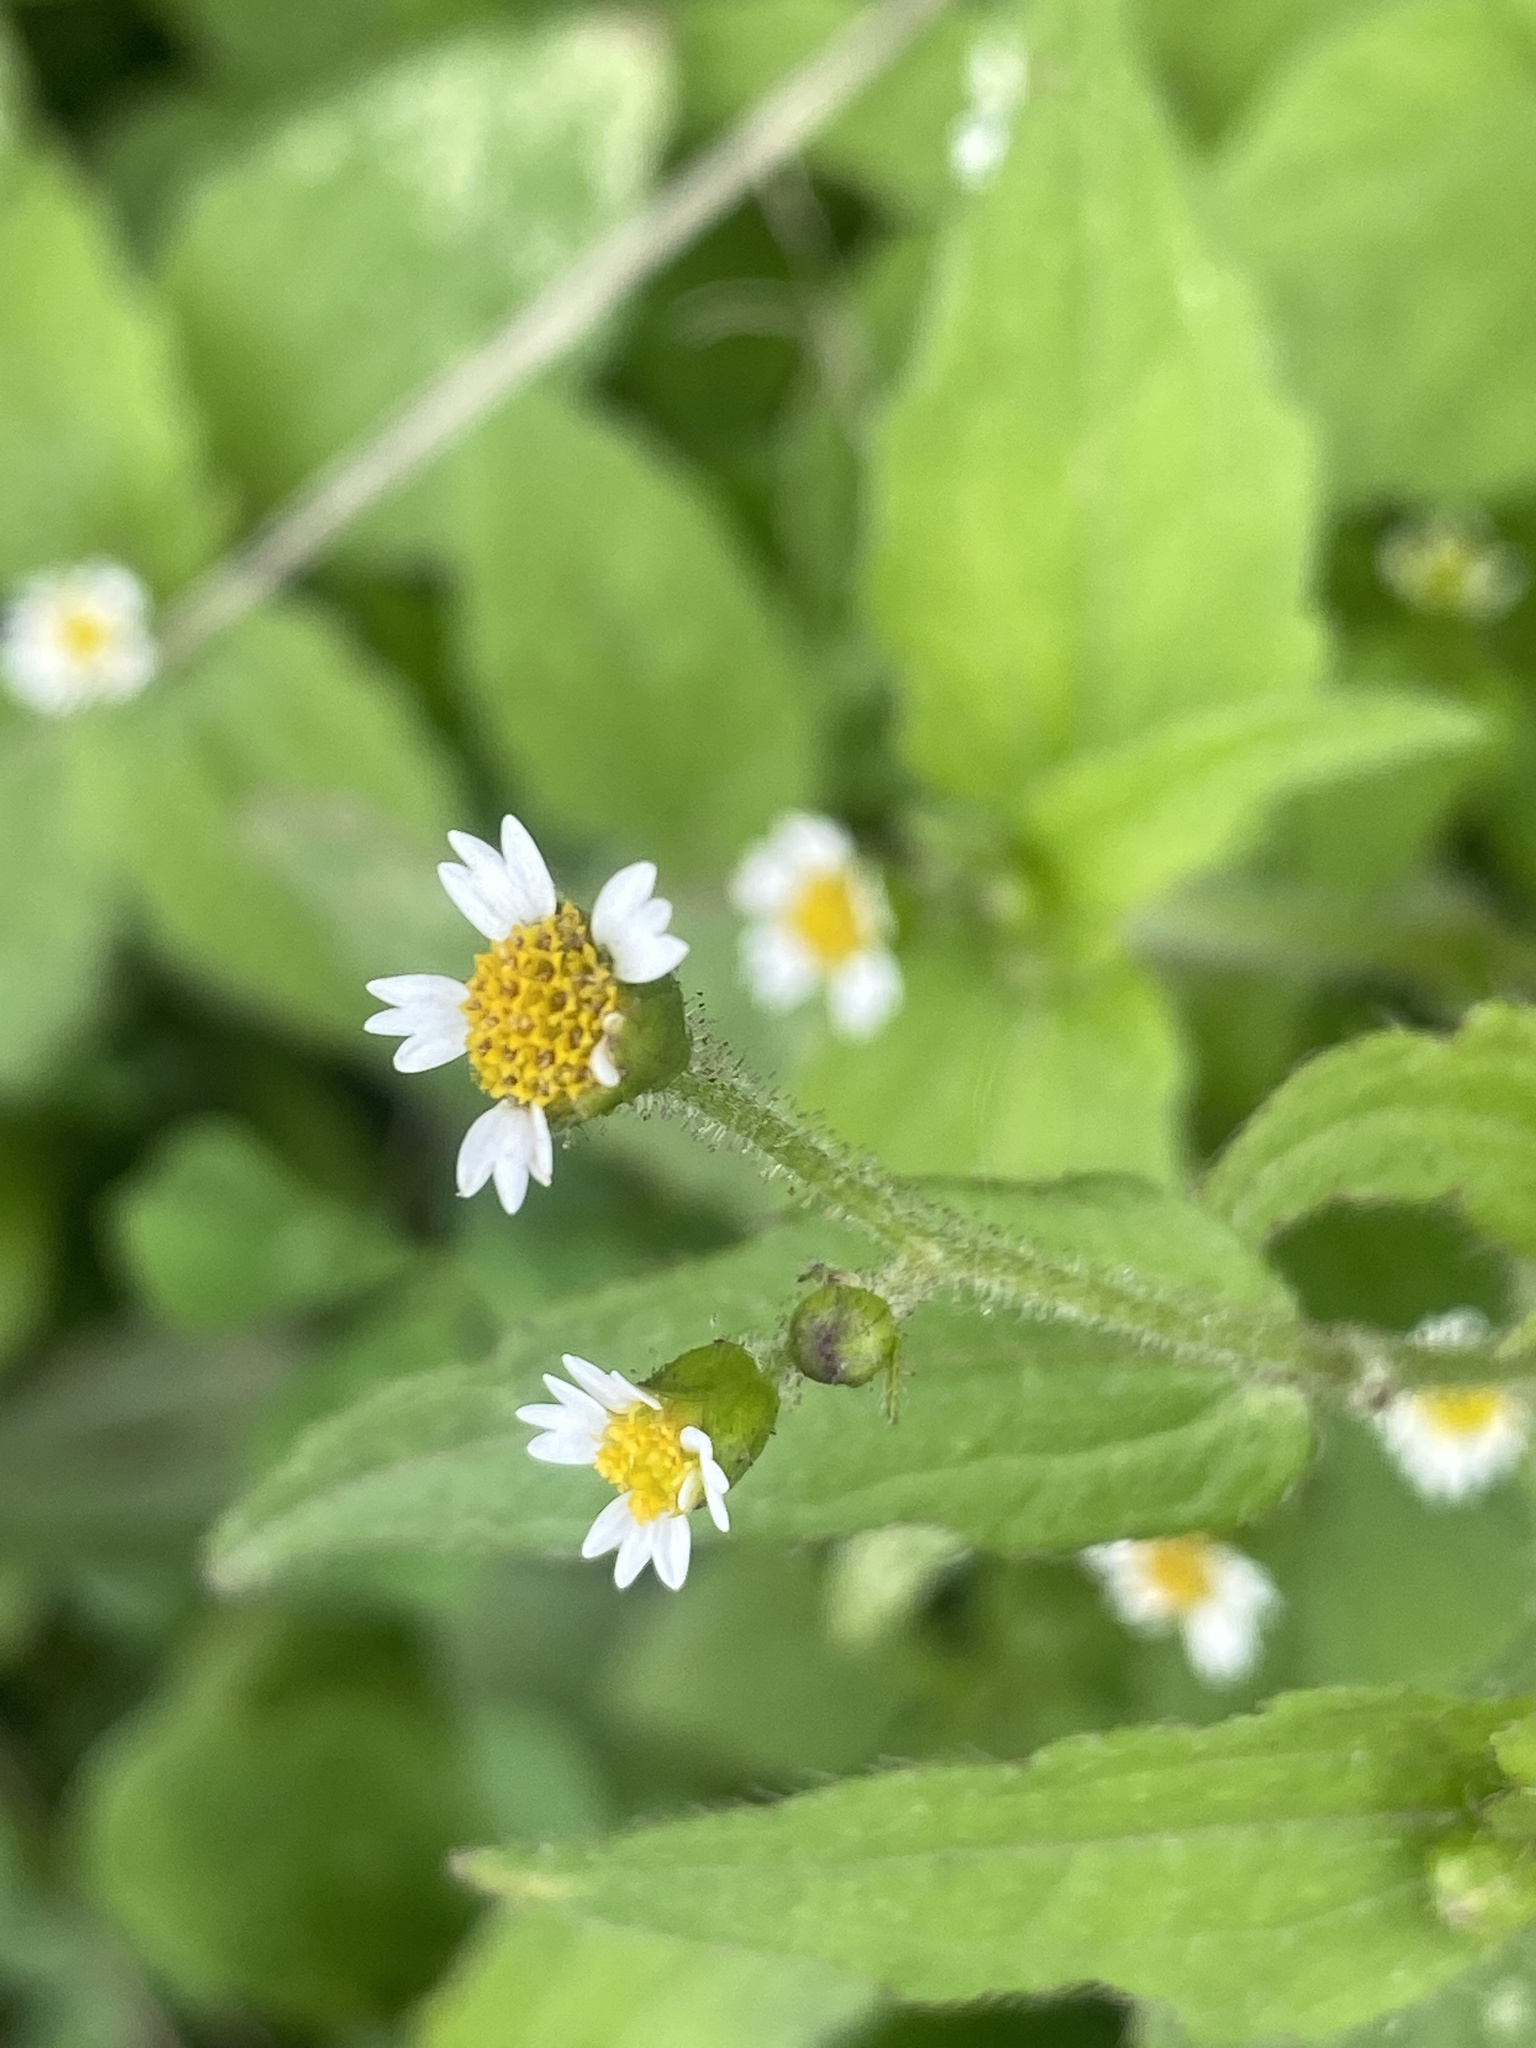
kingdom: Plantae
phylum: Tracheophyta
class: Magnoliopsida
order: Asterales
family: Asteraceae
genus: Galinsoga
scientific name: Galinsoga quadriradiata
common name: Shaggy soldier
